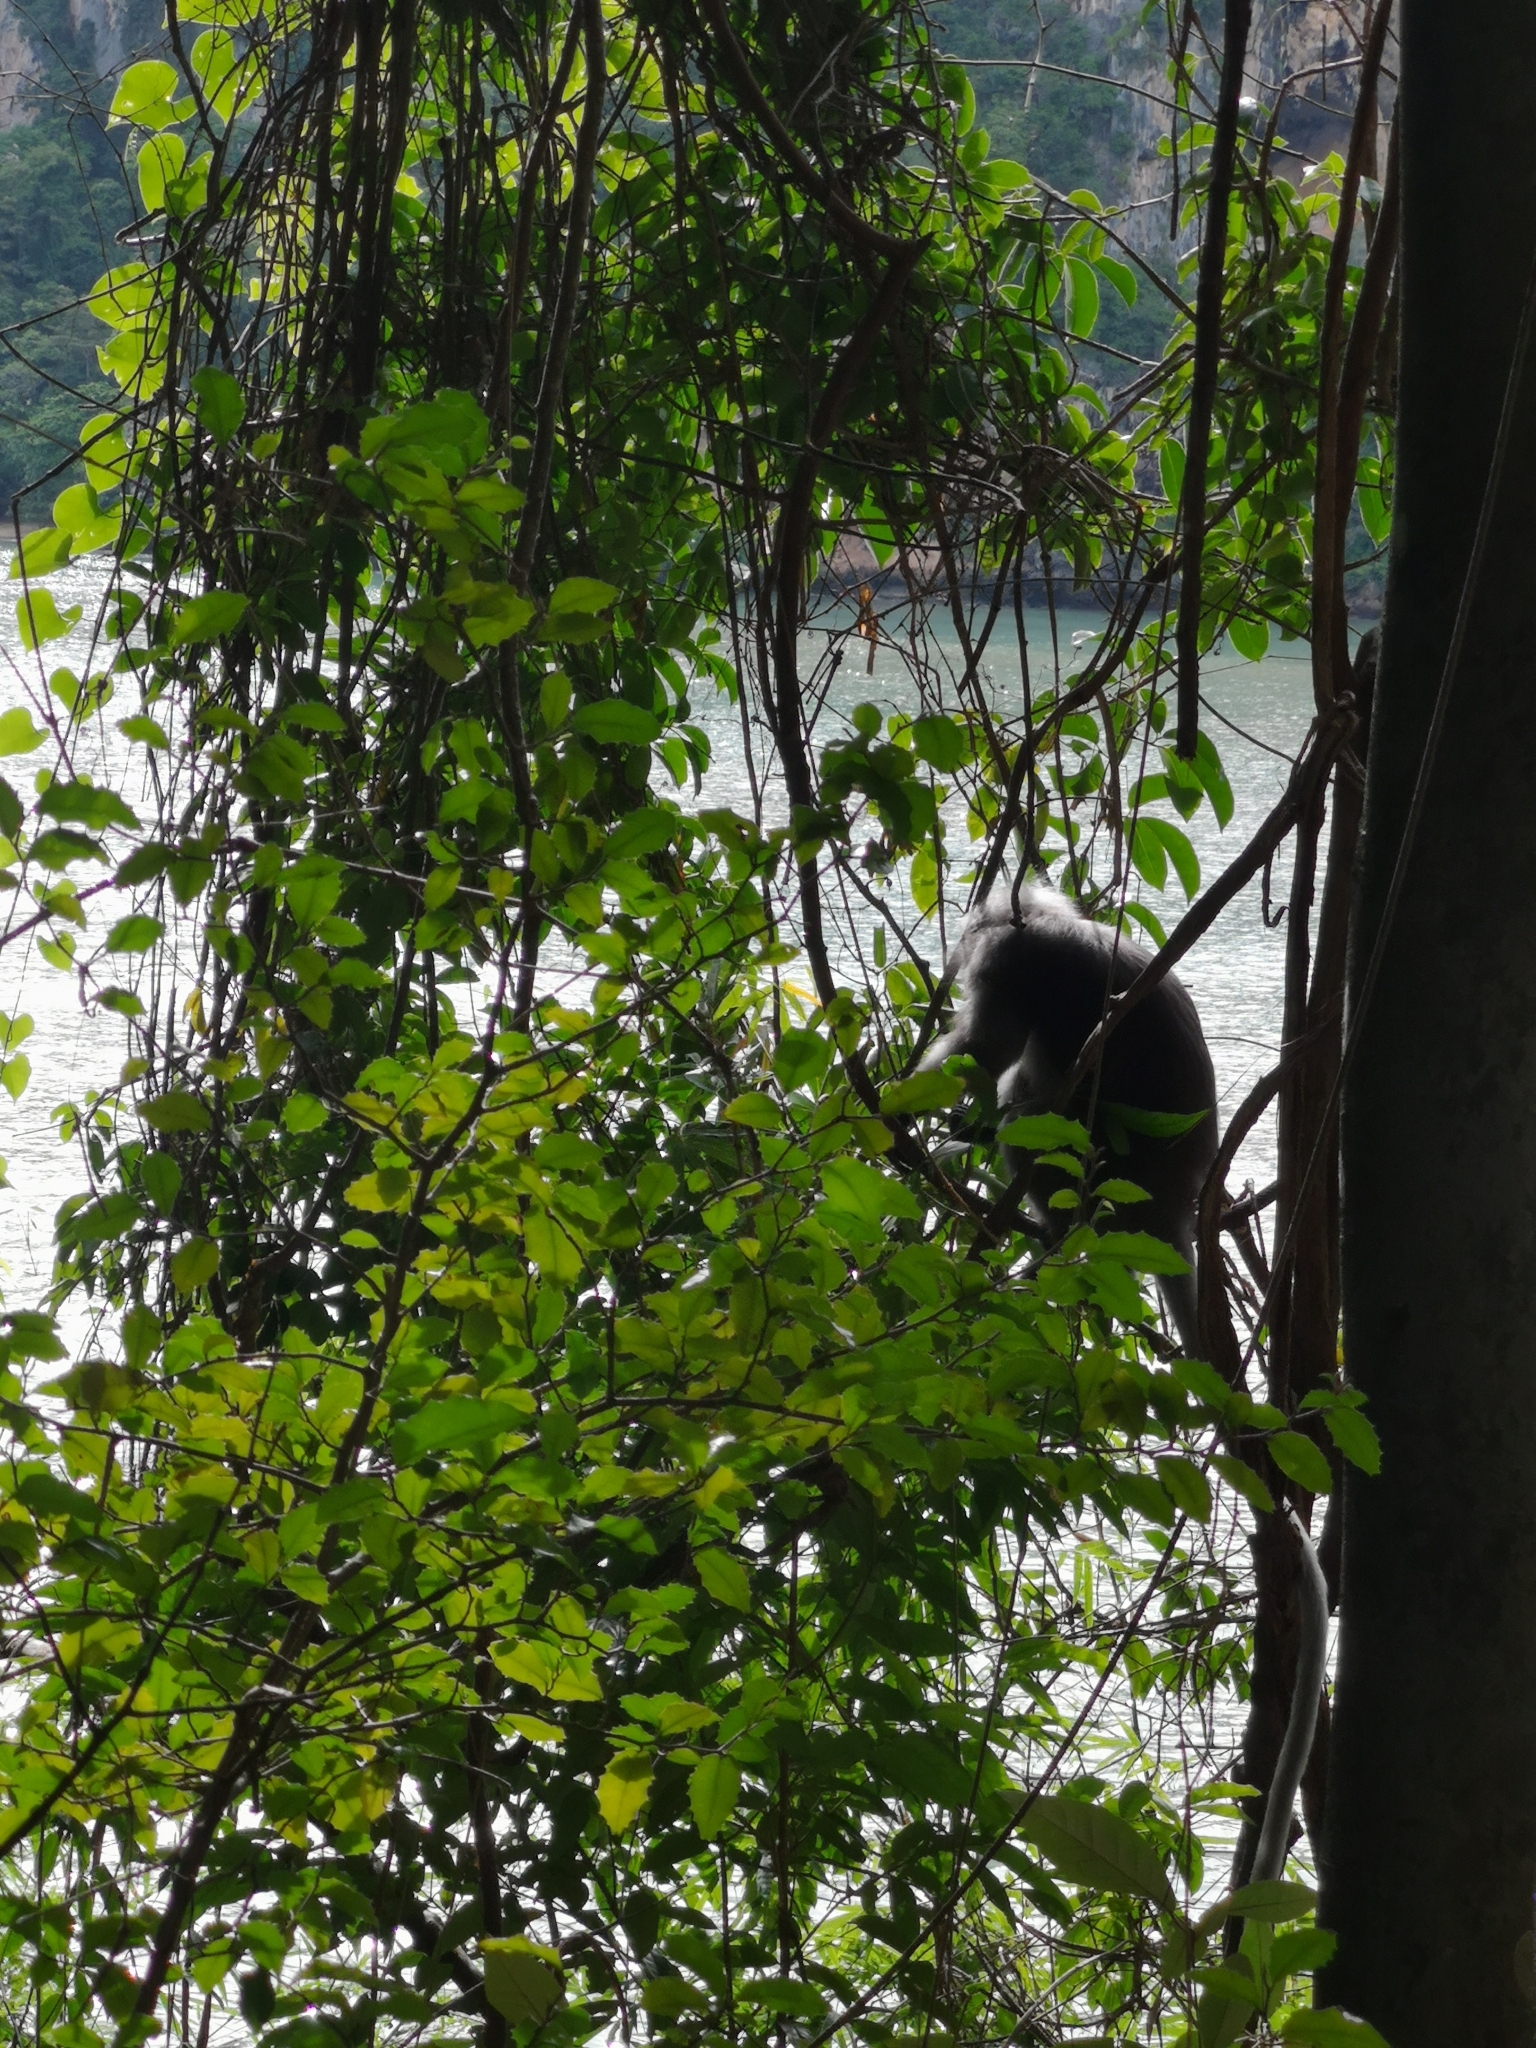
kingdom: Animalia
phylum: Chordata
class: Mammalia
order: Primates
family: Cercopithecidae
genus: Trachypithecus
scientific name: Trachypithecus obscurus
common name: Dusky leaf-monkey
